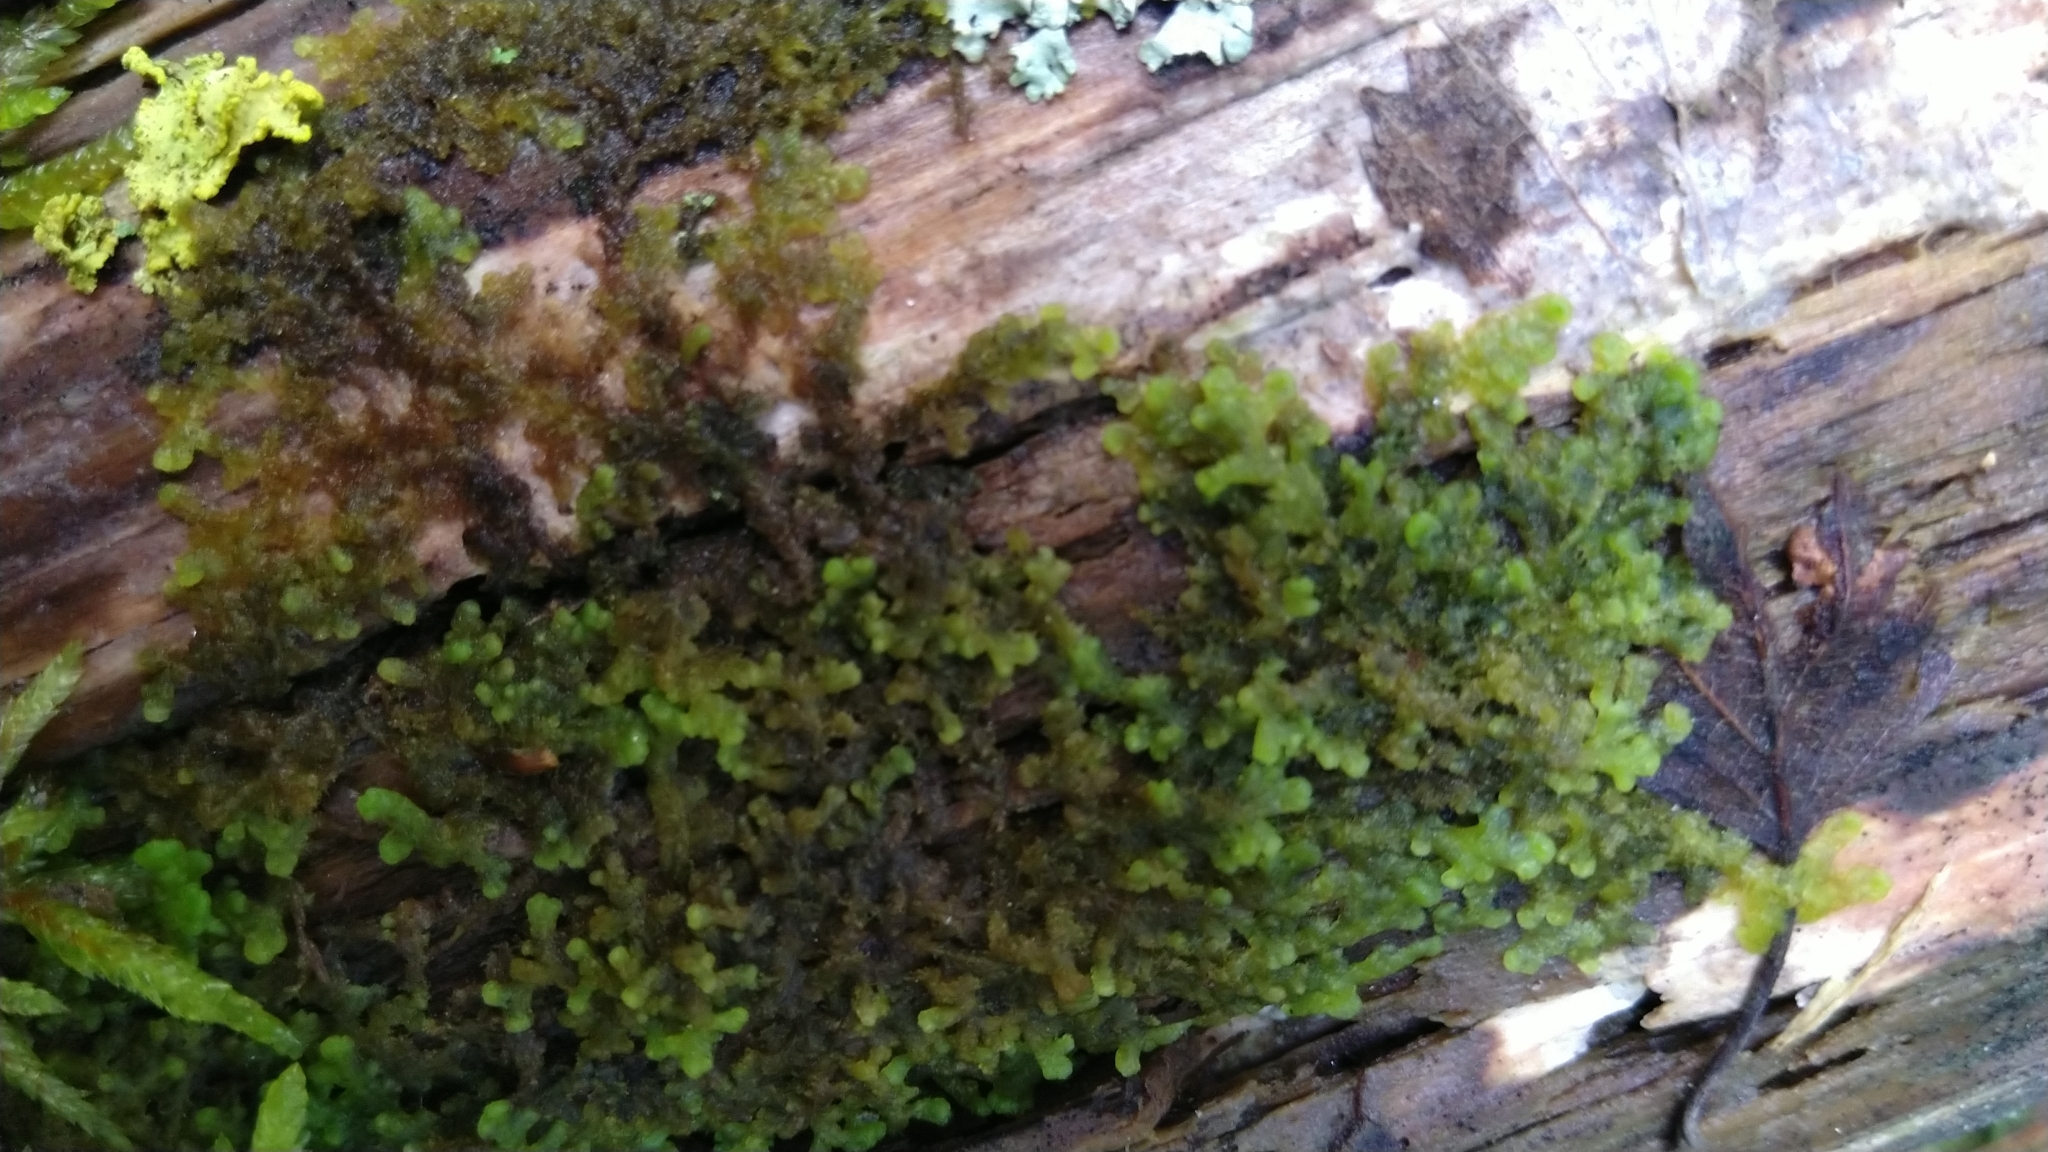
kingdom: Plantae
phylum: Marchantiophyta
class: Jungermanniopsida
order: Ptilidiales
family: Ptilidiaceae
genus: Ptilidium
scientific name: Ptilidium pulcherrimum
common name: Tree fringewort
